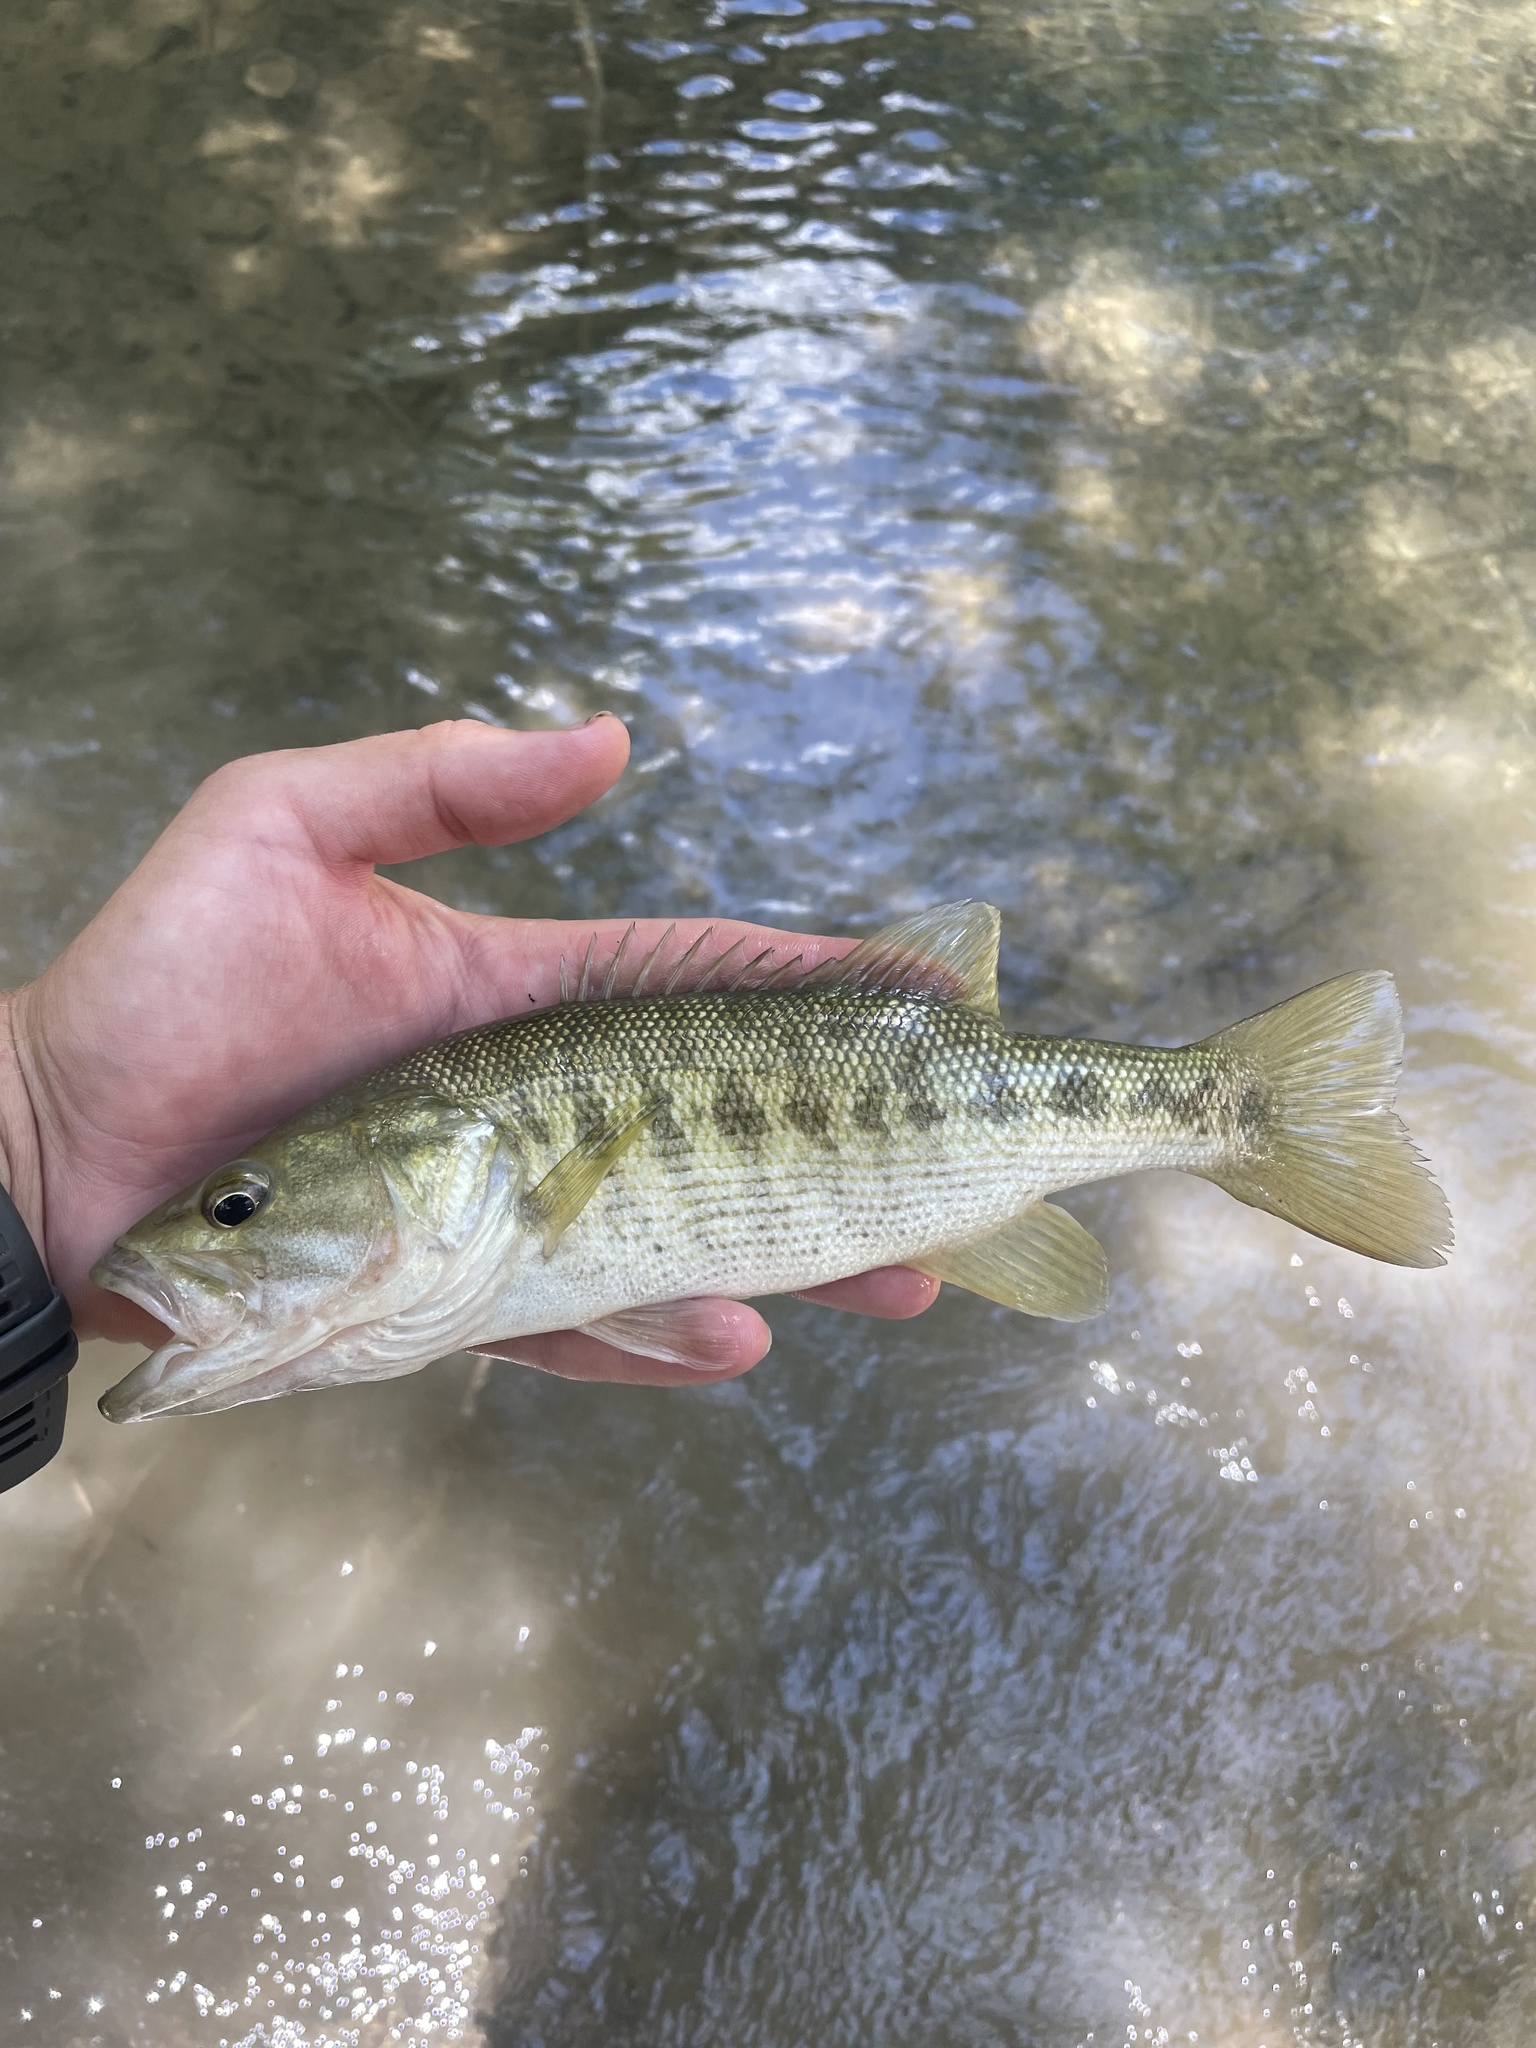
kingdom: Animalia
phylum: Chordata
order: Perciformes
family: Centrarchidae
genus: Micropterus
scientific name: Micropterus treculii
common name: Guadalupe bass
